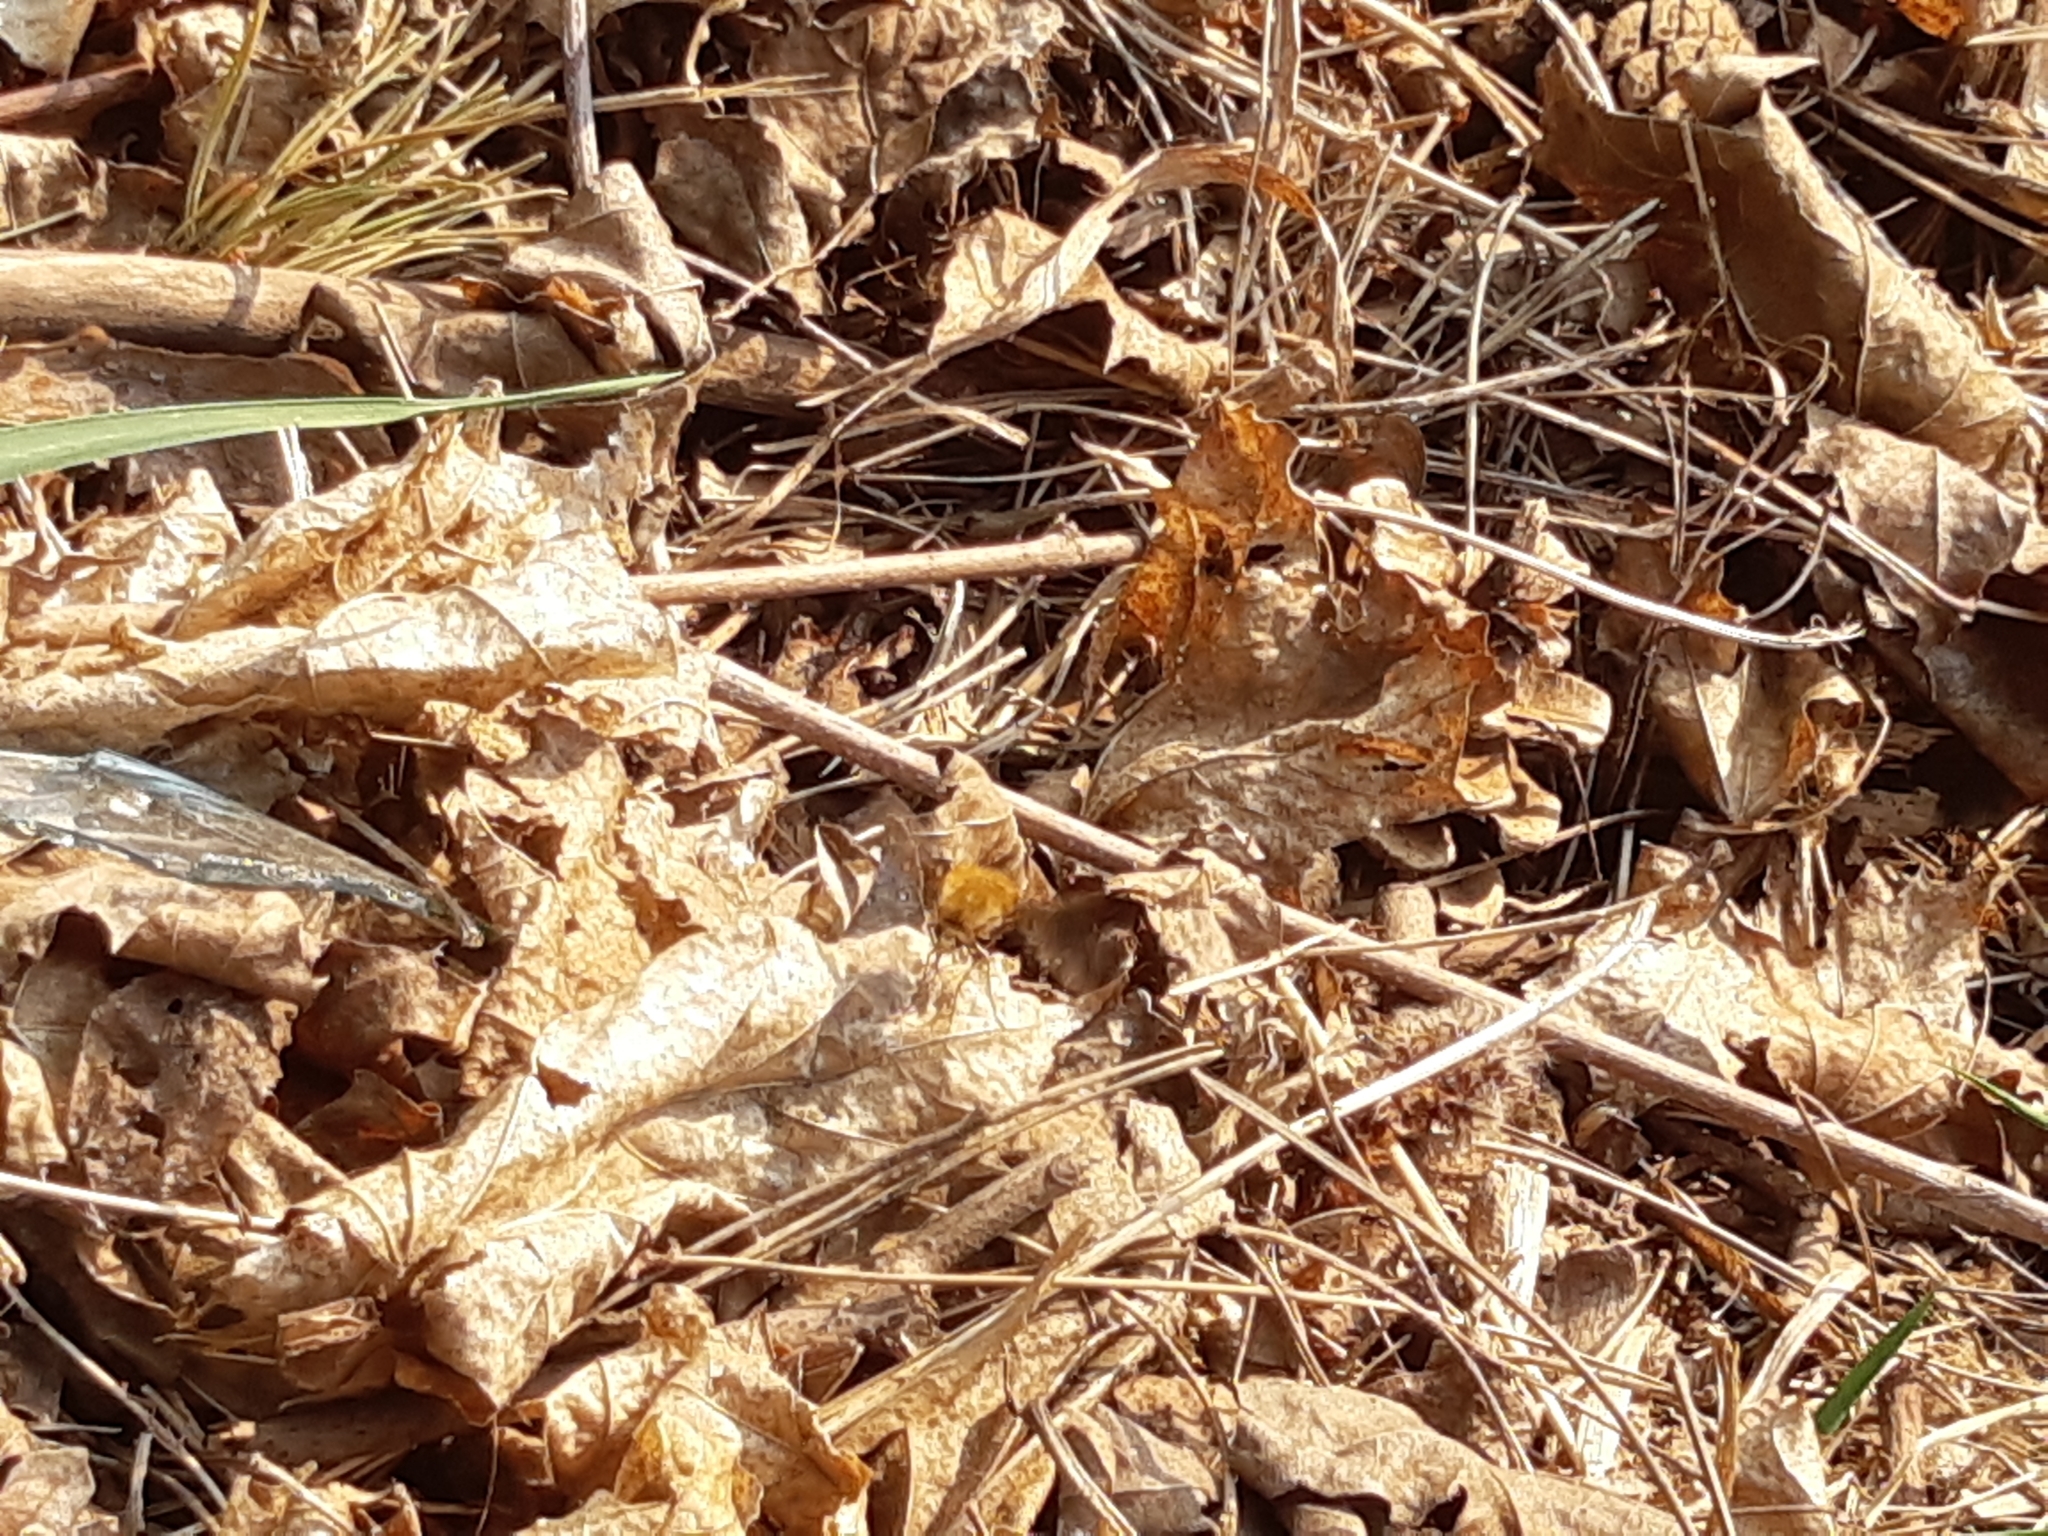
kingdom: Animalia
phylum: Arthropoda
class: Insecta
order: Diptera
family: Bombyliidae
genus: Bombylius
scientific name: Bombylius major
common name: Bee fly
